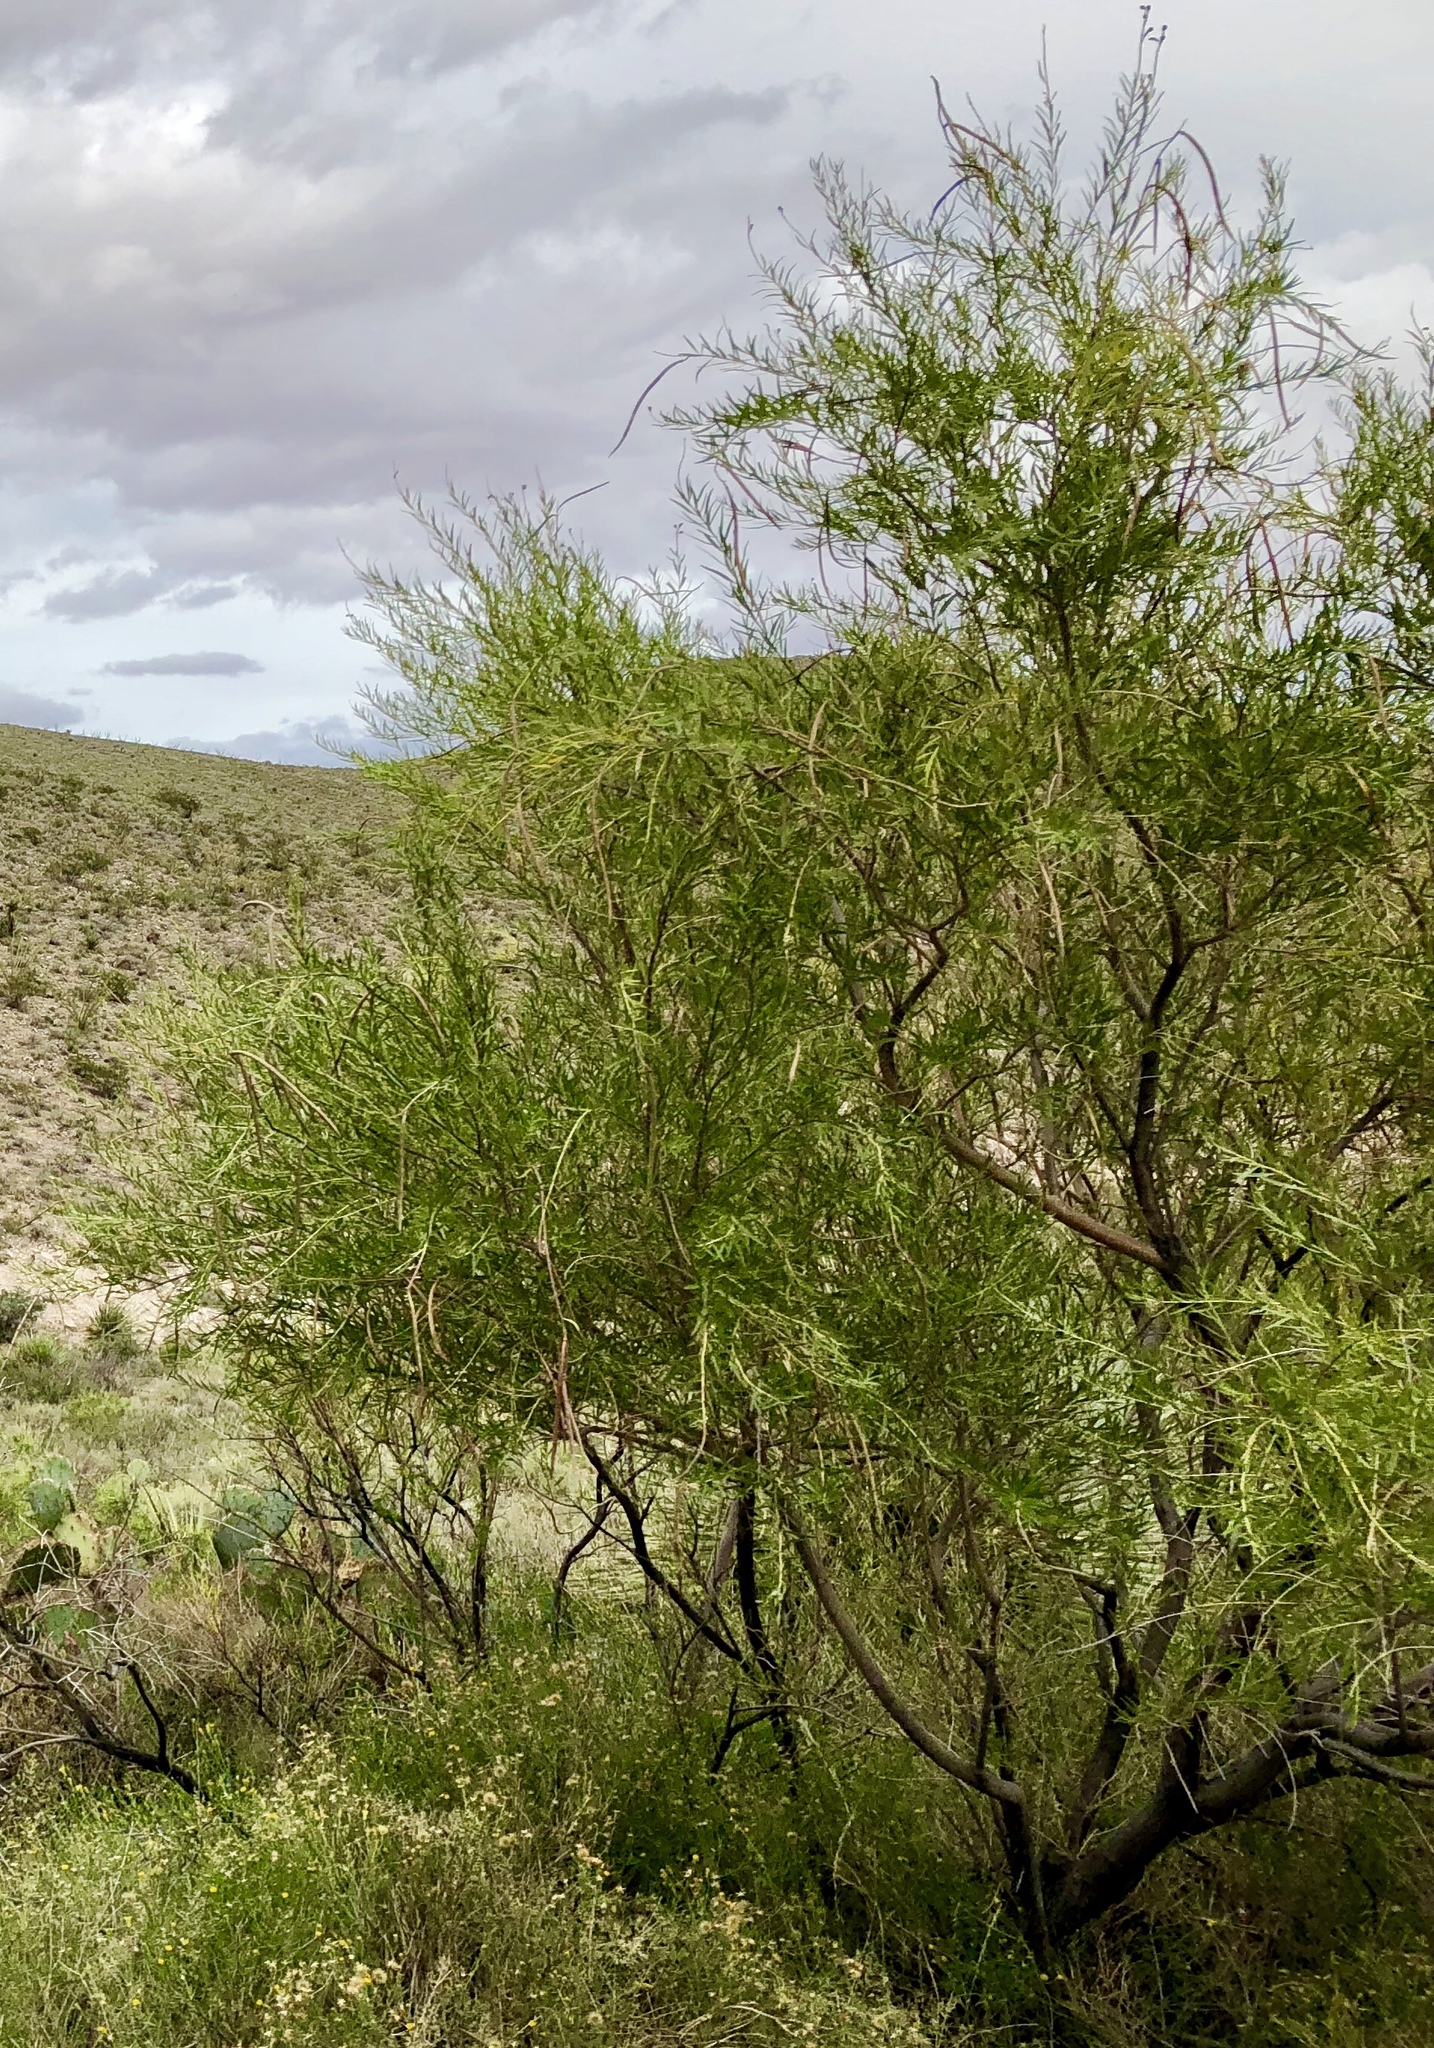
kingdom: Plantae
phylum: Tracheophyta
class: Magnoliopsida
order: Lamiales
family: Bignoniaceae
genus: Chilopsis
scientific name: Chilopsis linearis
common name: Desert-willow
